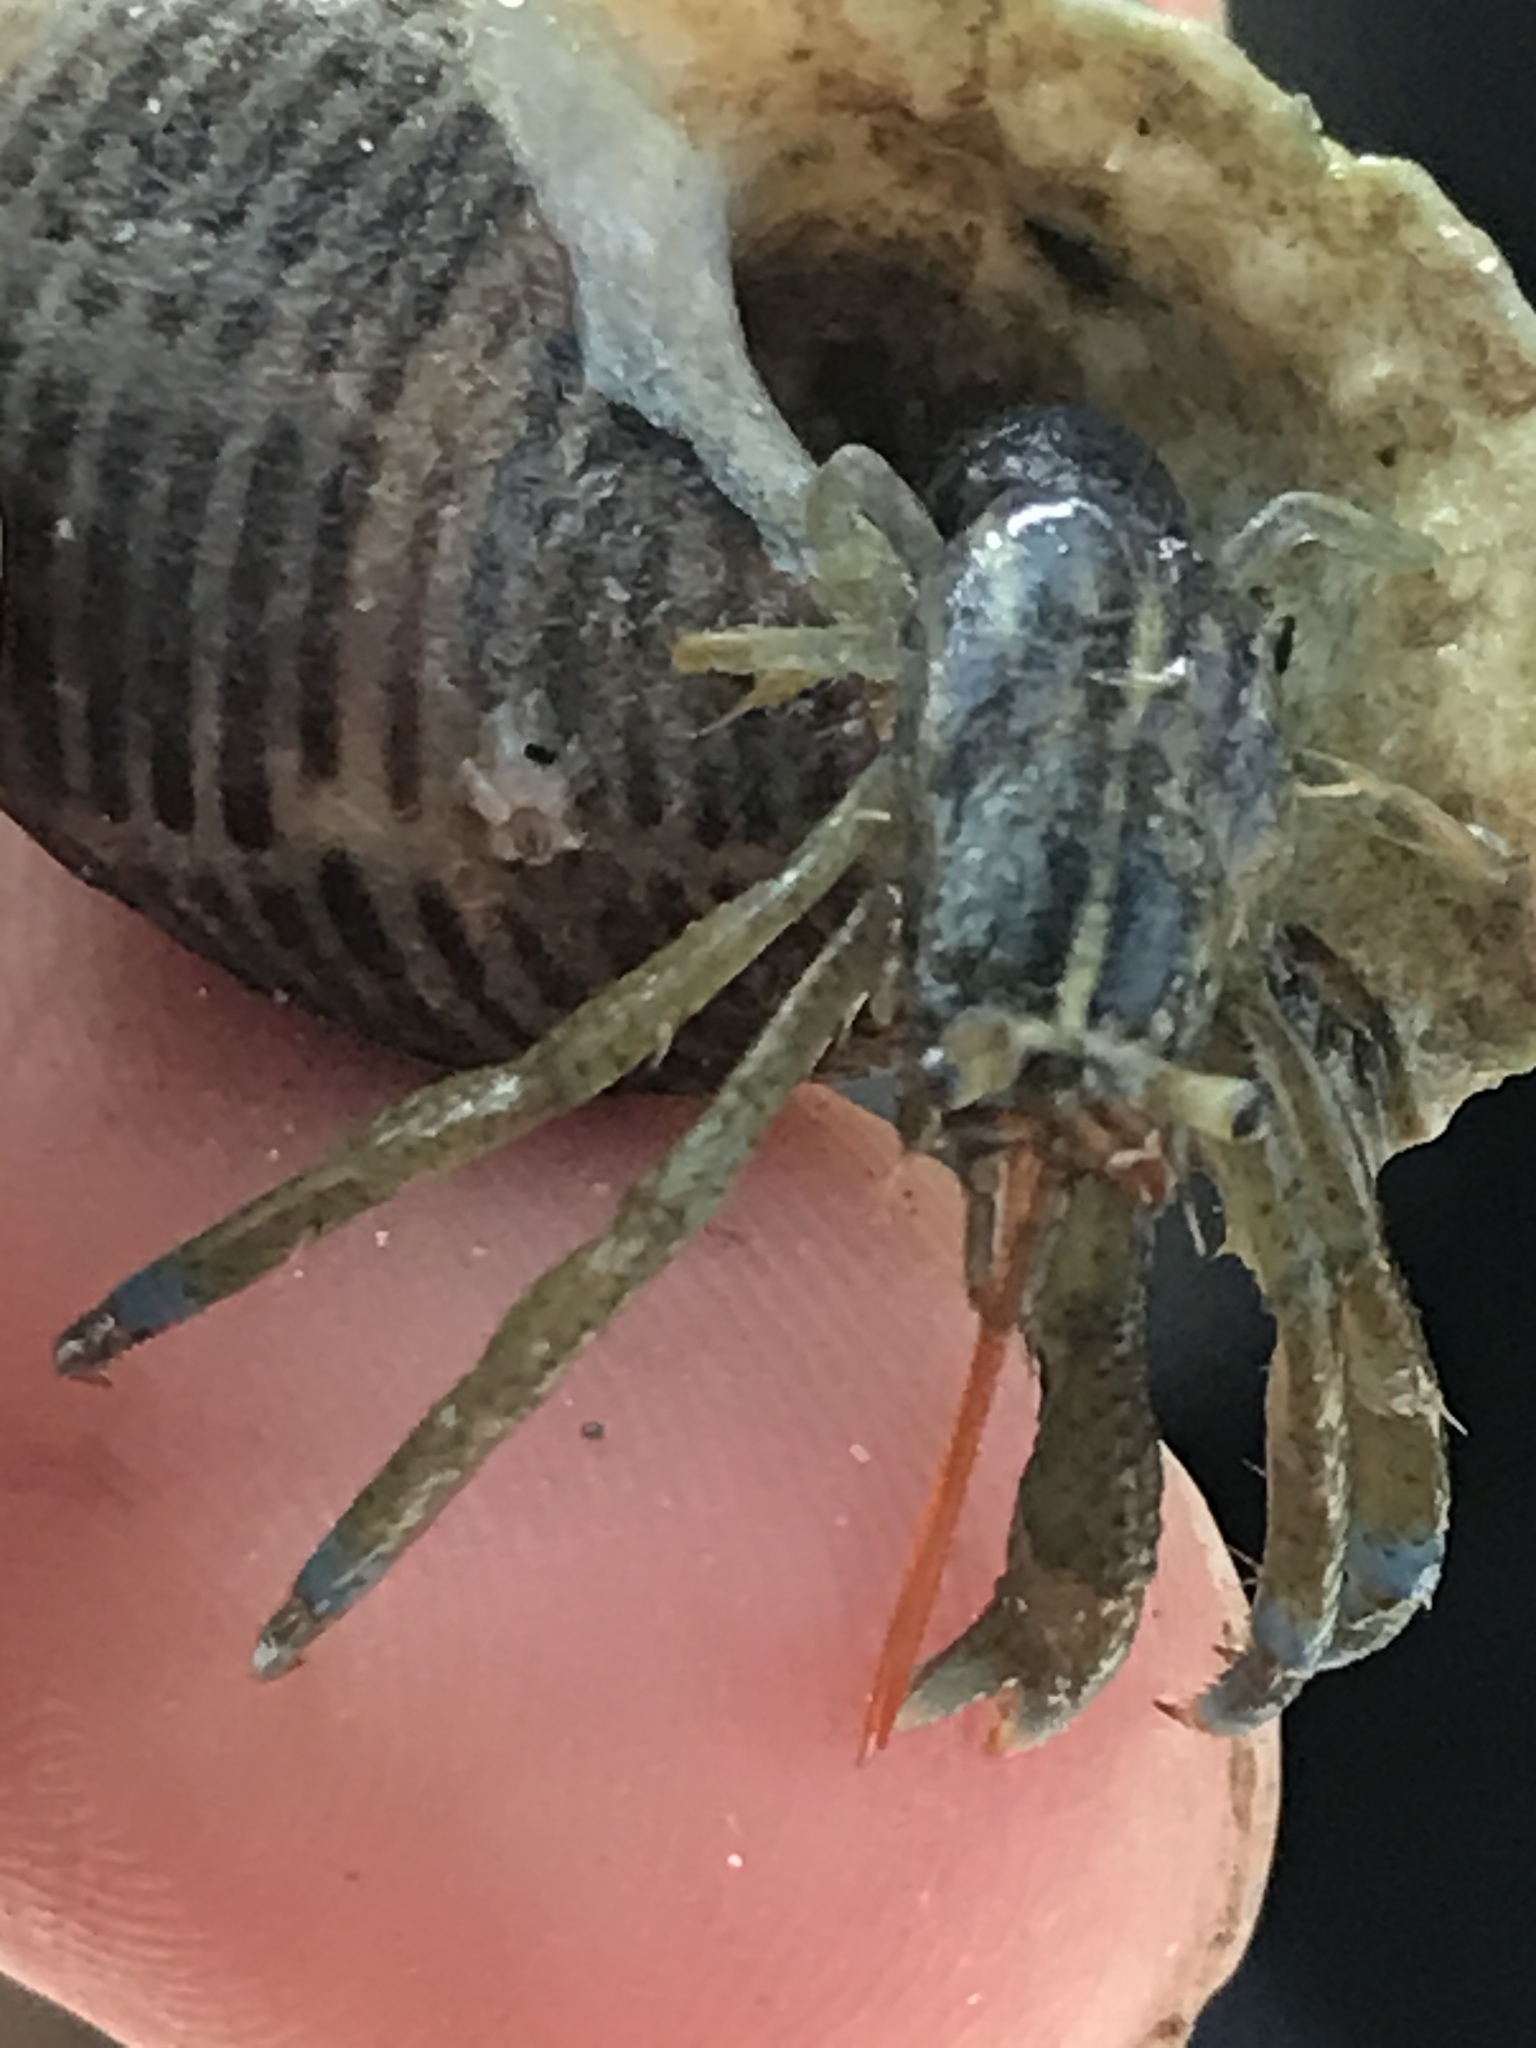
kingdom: Animalia
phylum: Arthropoda
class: Malacostraca
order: Decapoda
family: Paguridae
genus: Pagurus
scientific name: Pagurus samuelis
